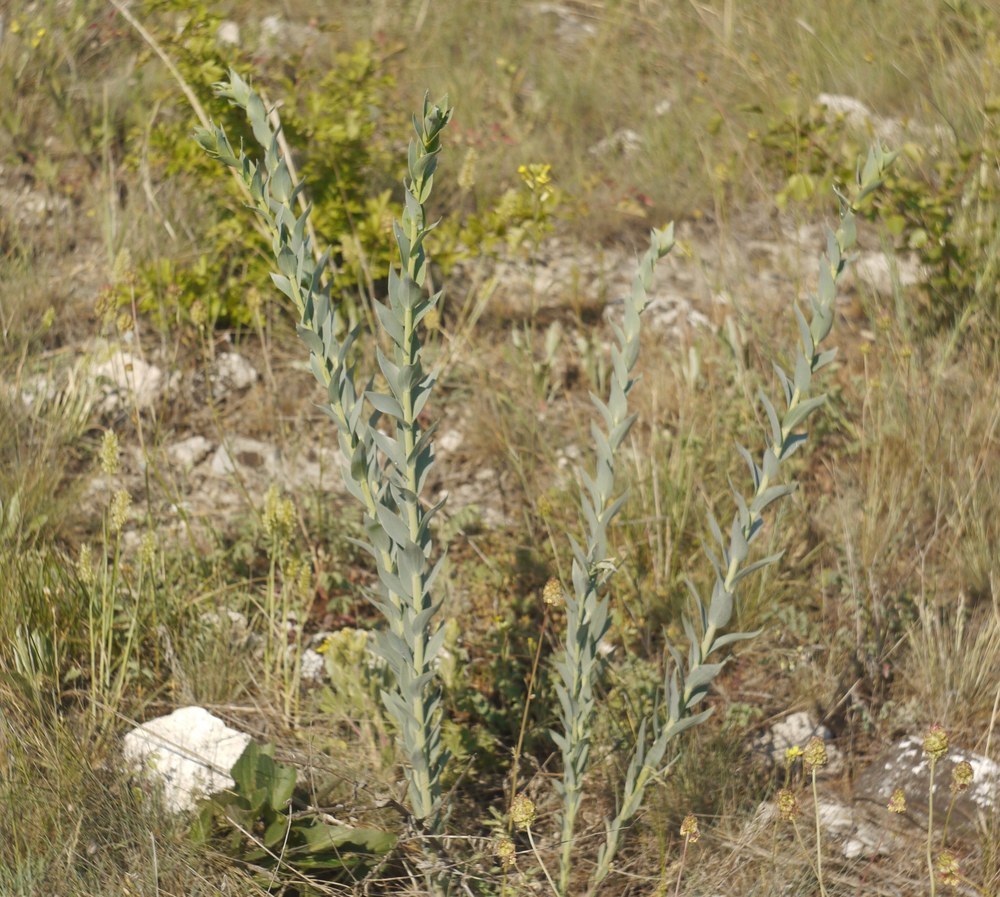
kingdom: Plantae
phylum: Tracheophyta
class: Magnoliopsida
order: Lamiales
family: Plantaginaceae
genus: Linaria
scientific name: Linaria genistifolia
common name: Broomleaf toadflax
